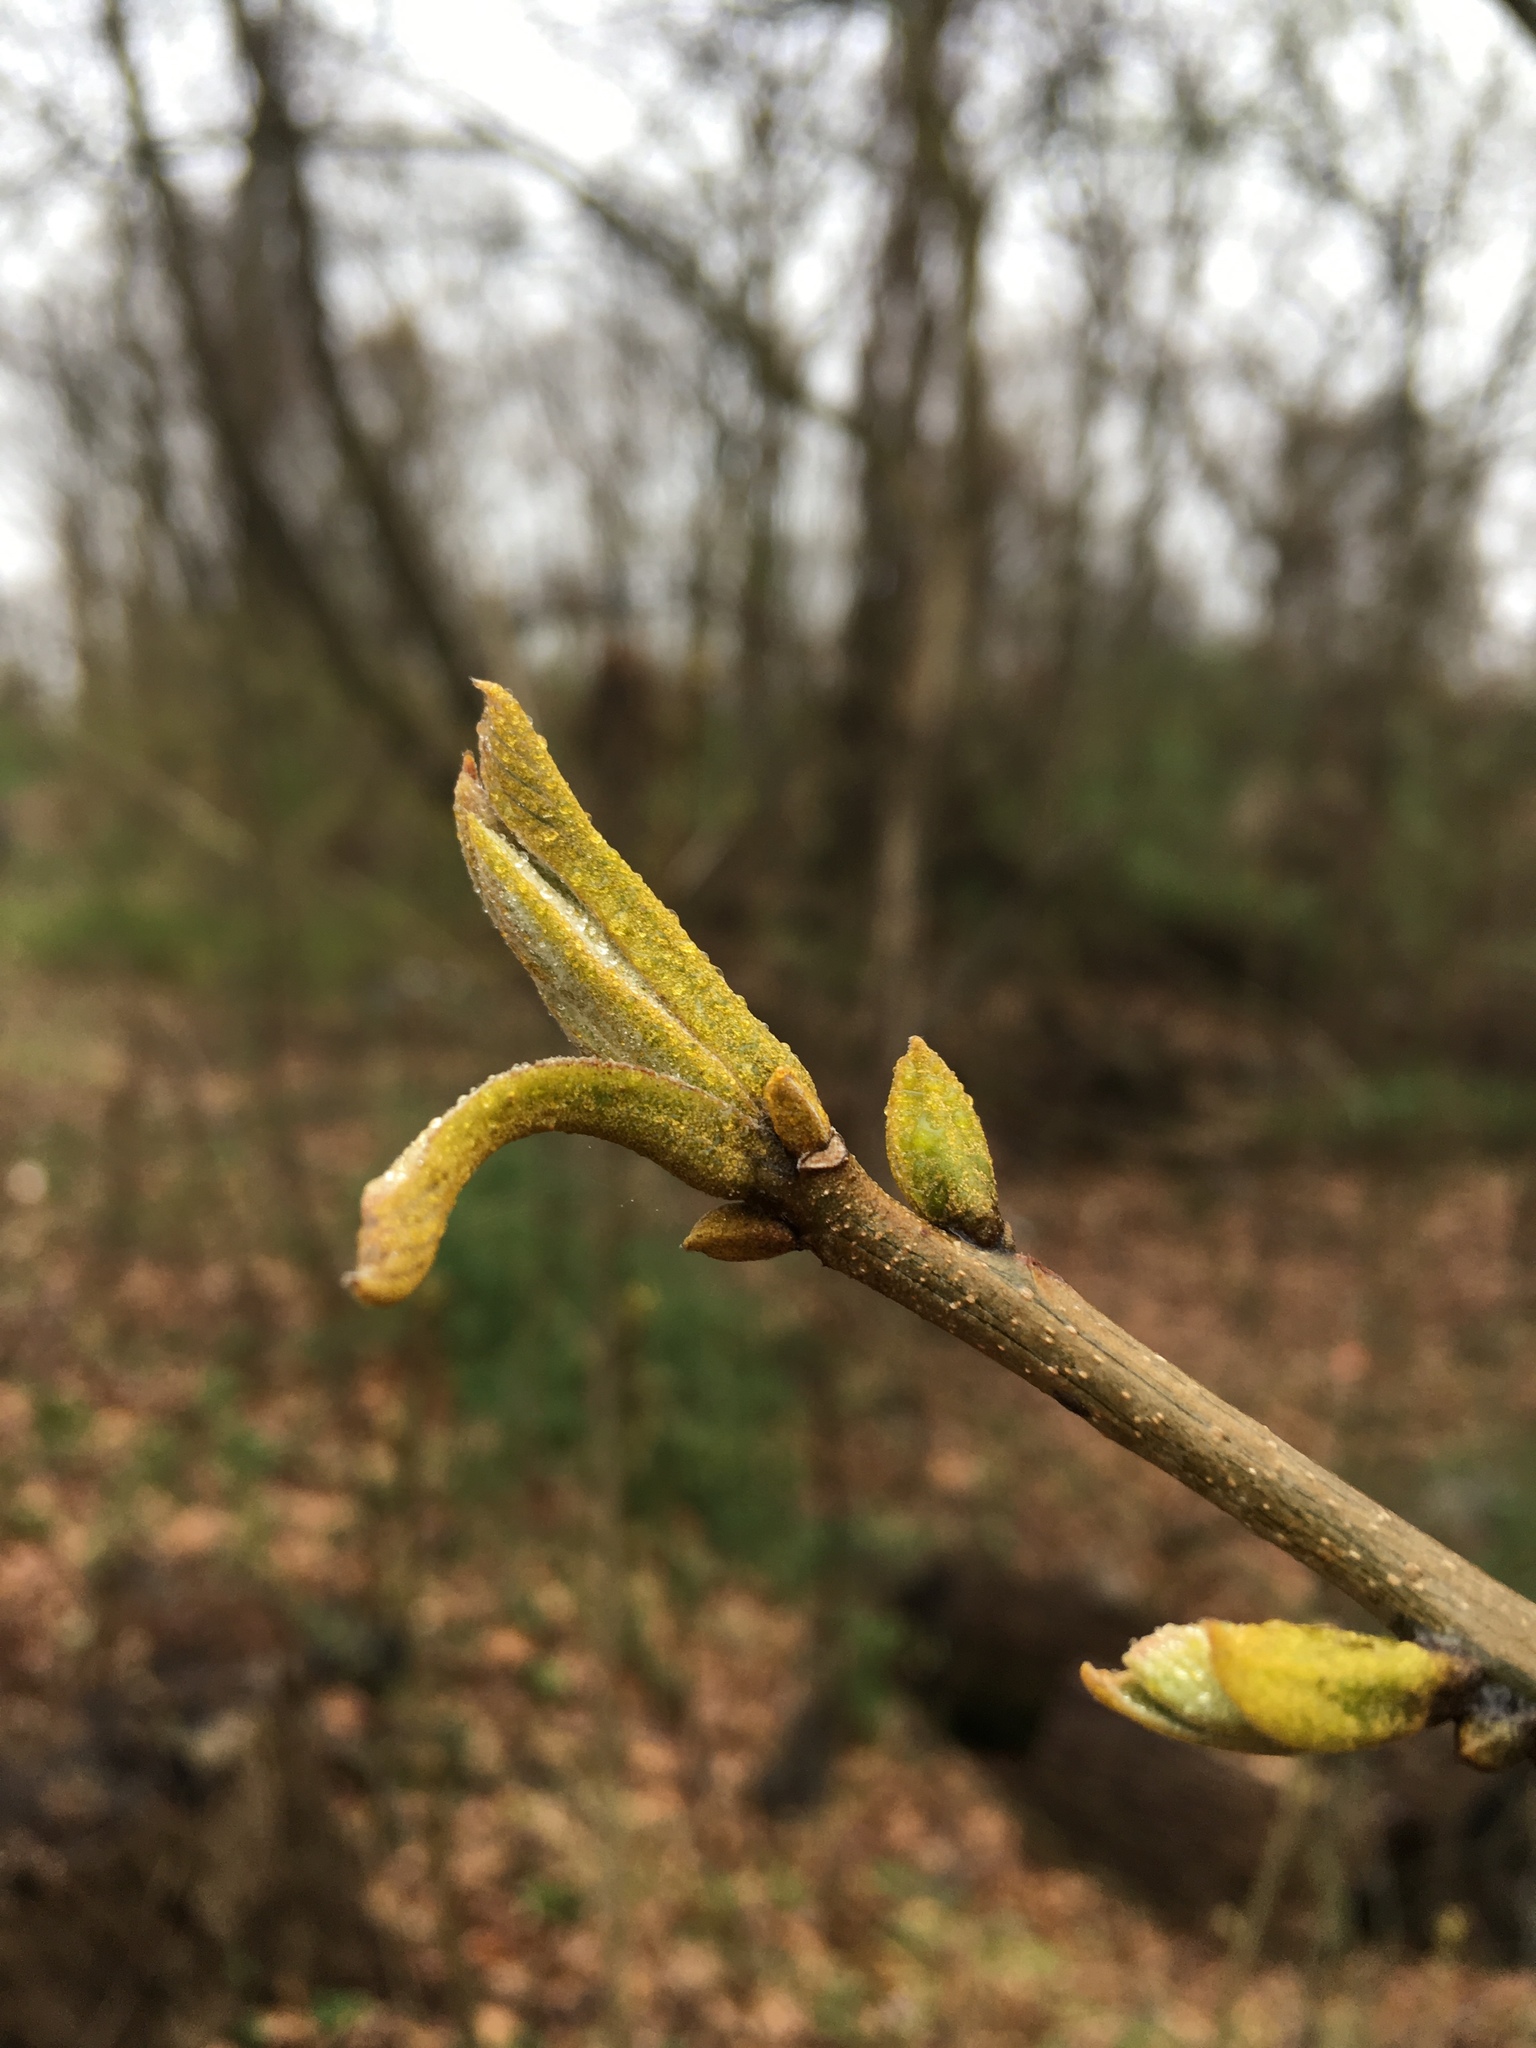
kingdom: Plantae
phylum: Tracheophyta
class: Magnoliopsida
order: Fagales
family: Juglandaceae
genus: Carya
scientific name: Carya cordiformis
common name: Bitternut hickory
